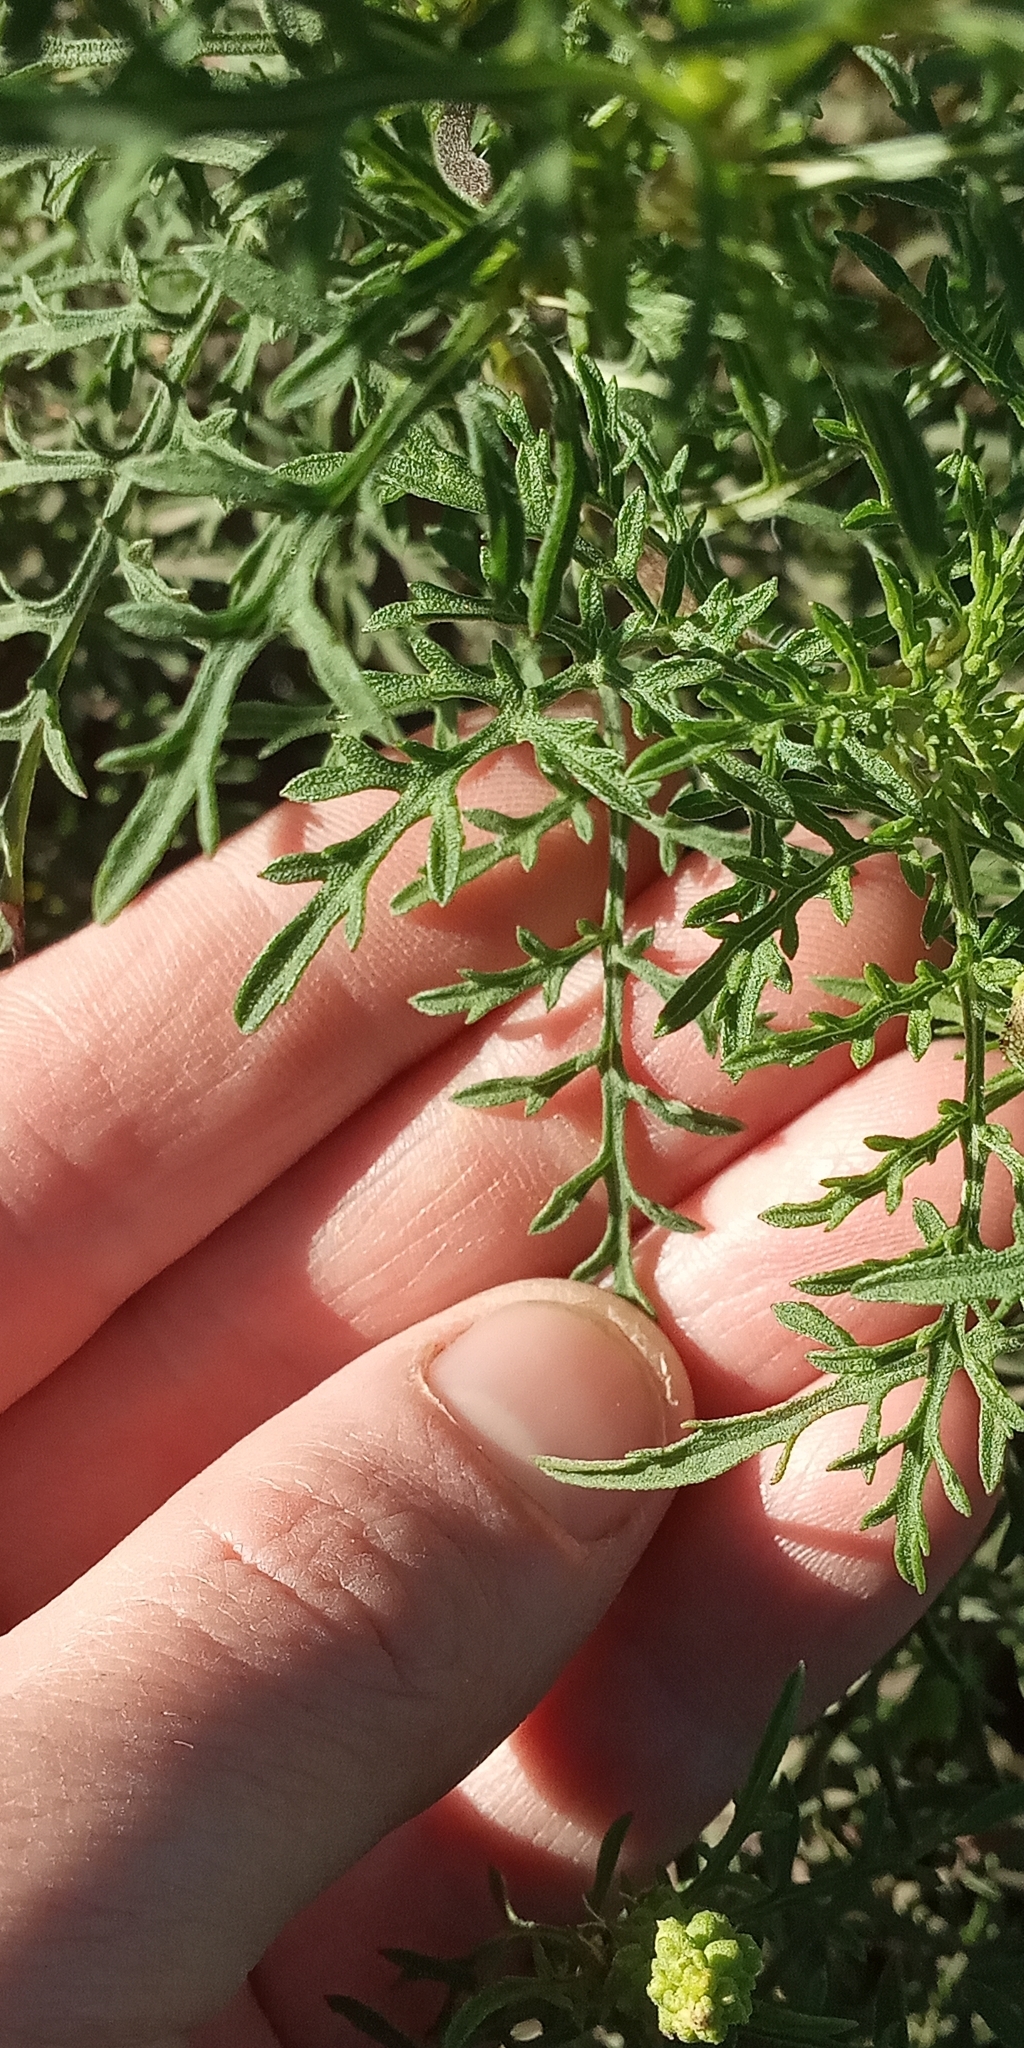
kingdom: Plantae
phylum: Tracheophyta
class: Magnoliopsida
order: Asterales
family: Asteraceae
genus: Ambrosia
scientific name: Ambrosia tenuifolia
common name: Lacy ambrosia
